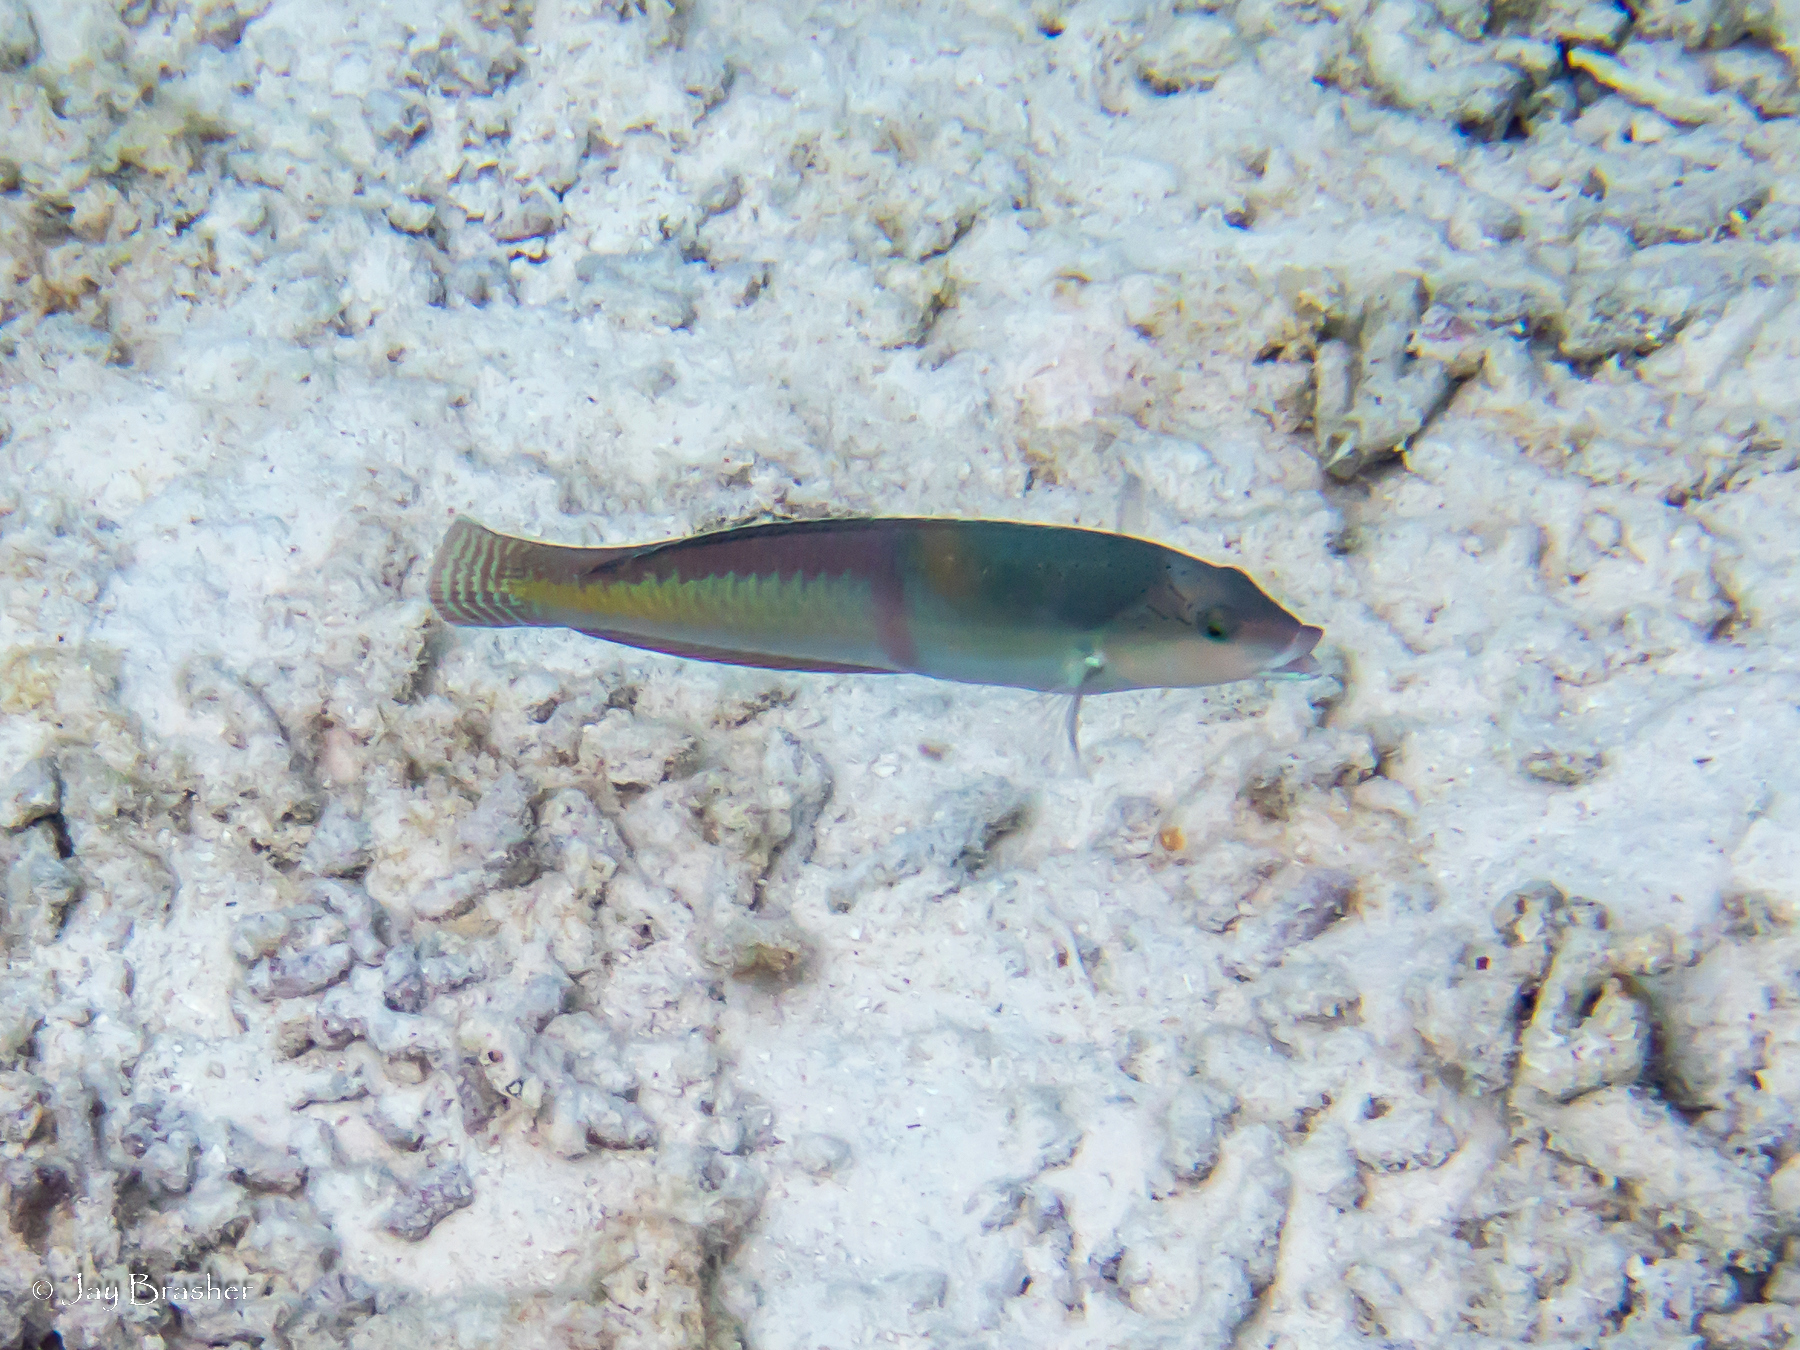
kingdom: Animalia
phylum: Chordata
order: Perciformes
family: Labridae
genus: Halichoeres
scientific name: Halichoeres garnoti
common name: Yellowhead wrasse
